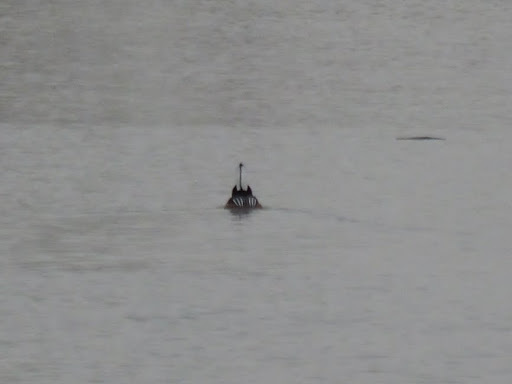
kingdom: Animalia
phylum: Chordata
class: Aves
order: Anseriformes
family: Anatidae
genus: Lophodytes
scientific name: Lophodytes cucullatus
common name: Hooded merganser
